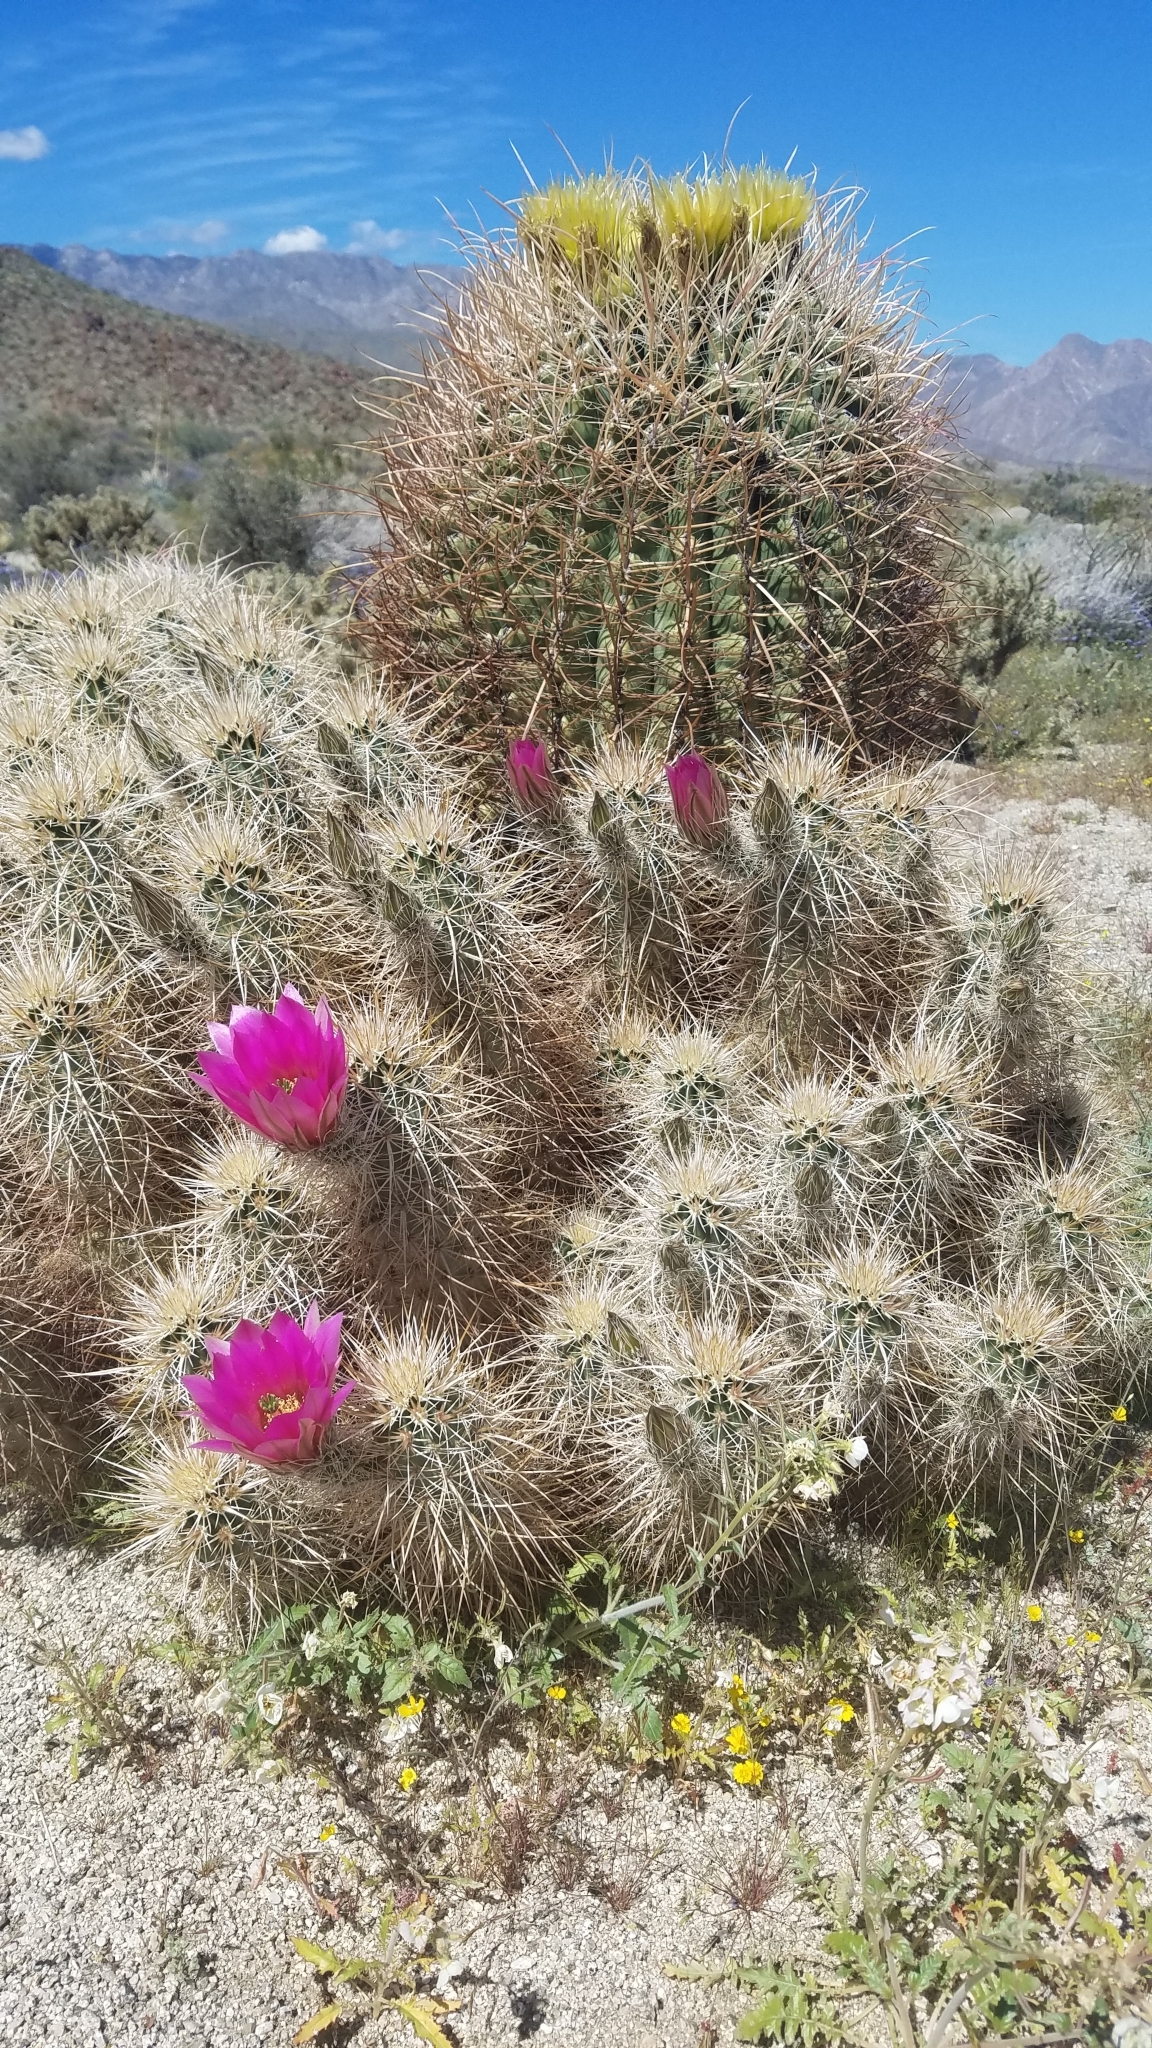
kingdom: Plantae
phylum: Tracheophyta
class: Magnoliopsida
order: Caryophyllales
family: Cactaceae
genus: Echinocereus
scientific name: Echinocereus engelmannii
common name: Engelmann's hedgehog cactus
